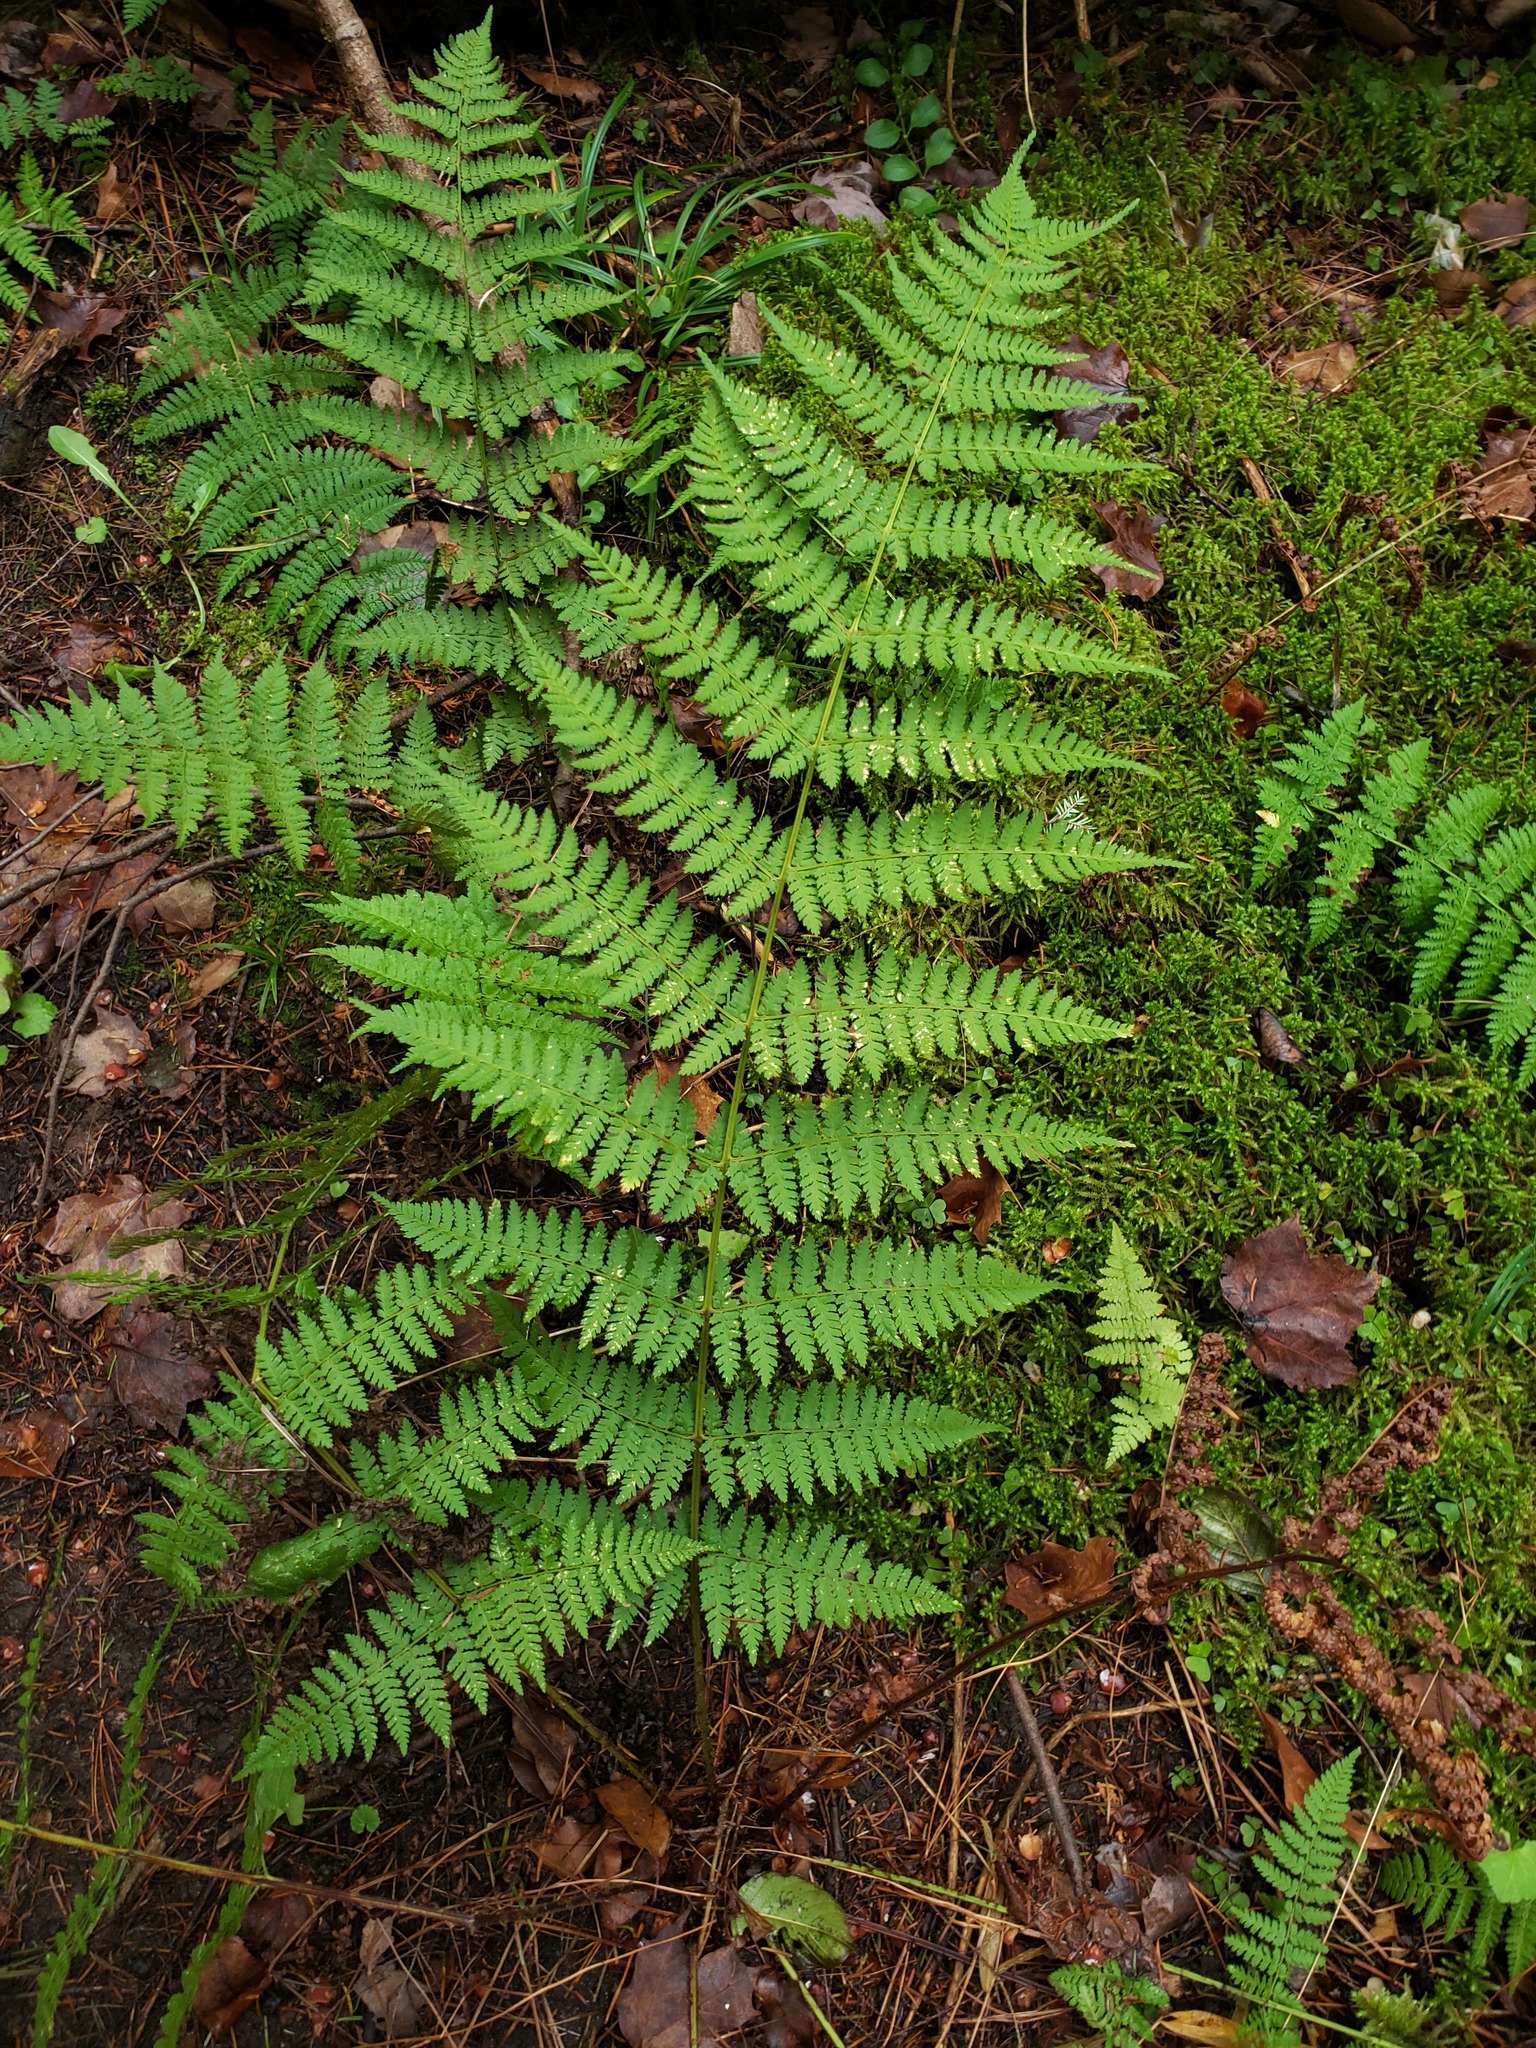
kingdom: Plantae
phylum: Tracheophyta
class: Polypodiopsida
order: Polypodiales
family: Dryopteridaceae
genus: Dryopteris
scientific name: Dryopteris intermedia
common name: Evergreen wood fern
